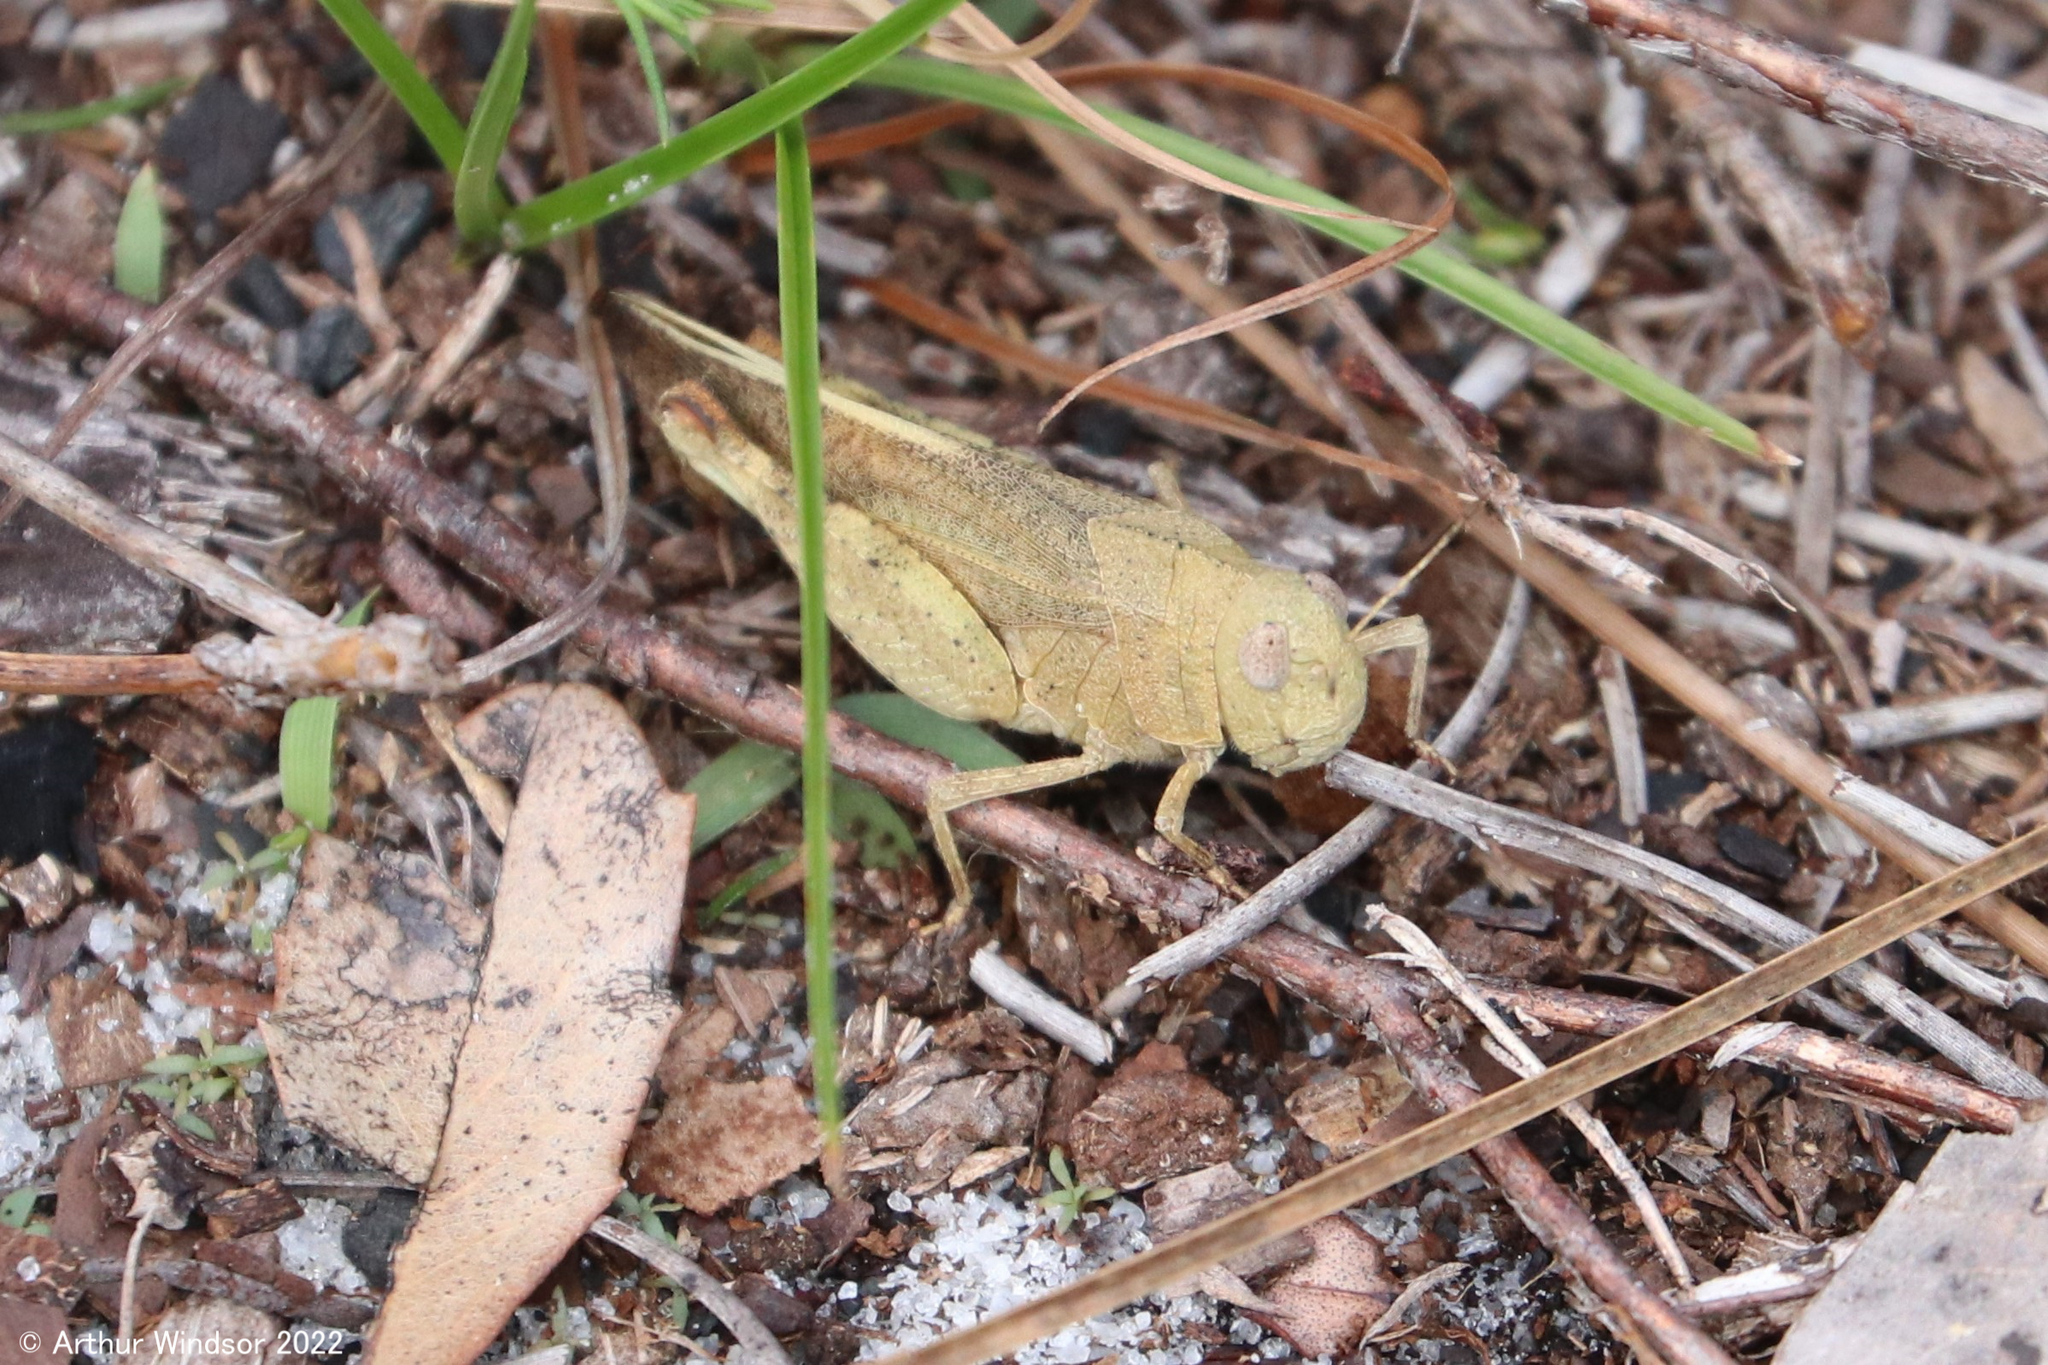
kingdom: Animalia
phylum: Arthropoda
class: Insecta
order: Orthoptera
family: Acrididae
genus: Arphia
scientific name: Arphia granulata
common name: Southern yellow-winged grasshopper
